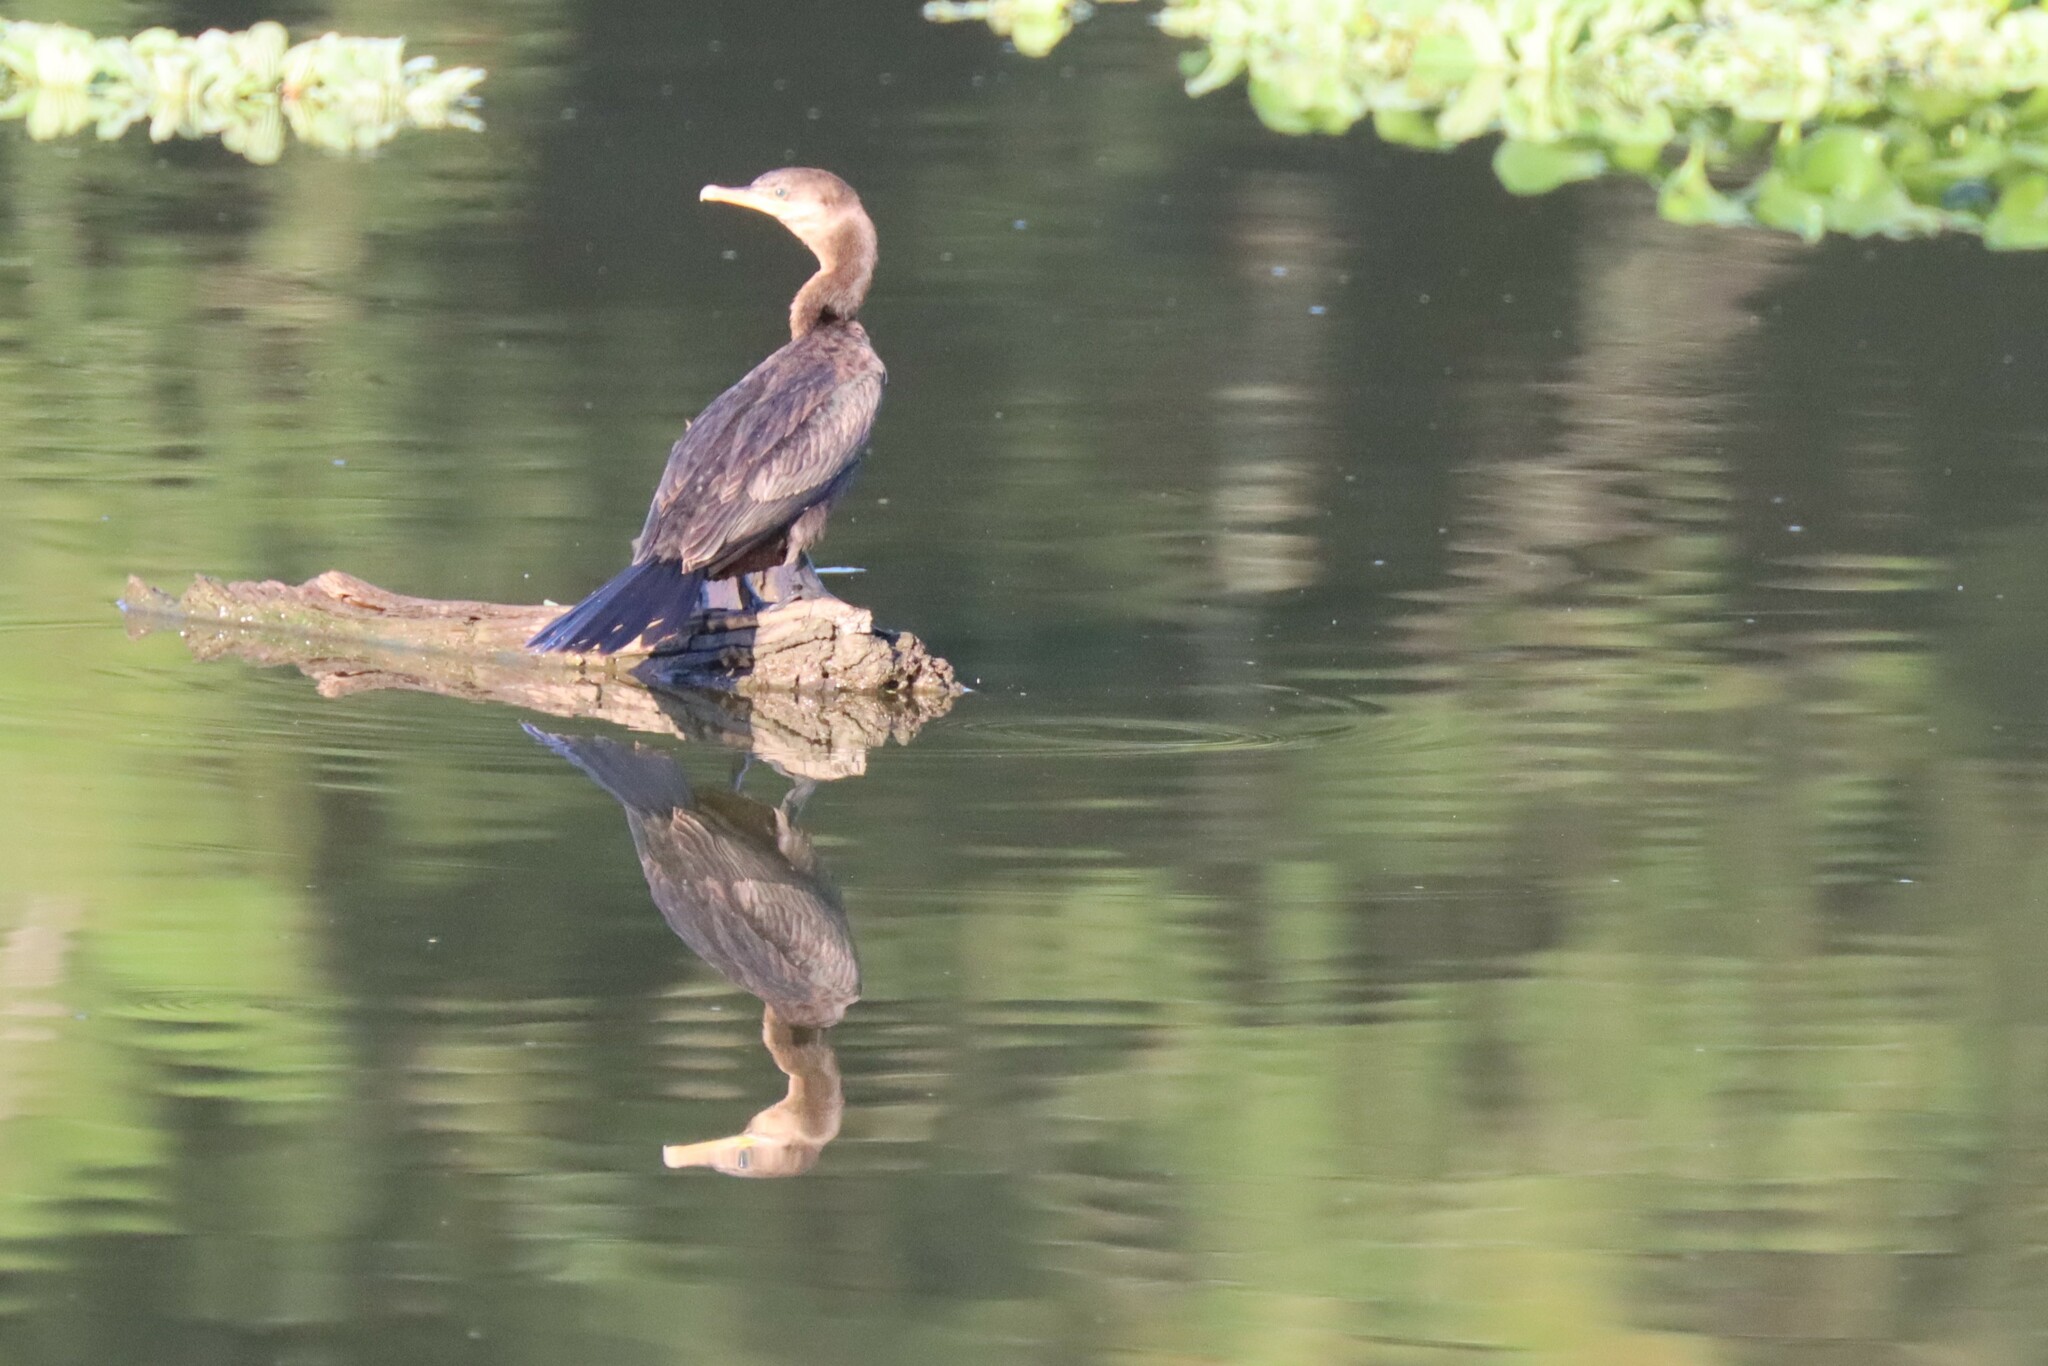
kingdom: Animalia
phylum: Chordata
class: Aves
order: Suliformes
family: Phalacrocoracidae
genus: Phalacrocorax
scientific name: Phalacrocorax brasilianus
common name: Neotropic cormorant
